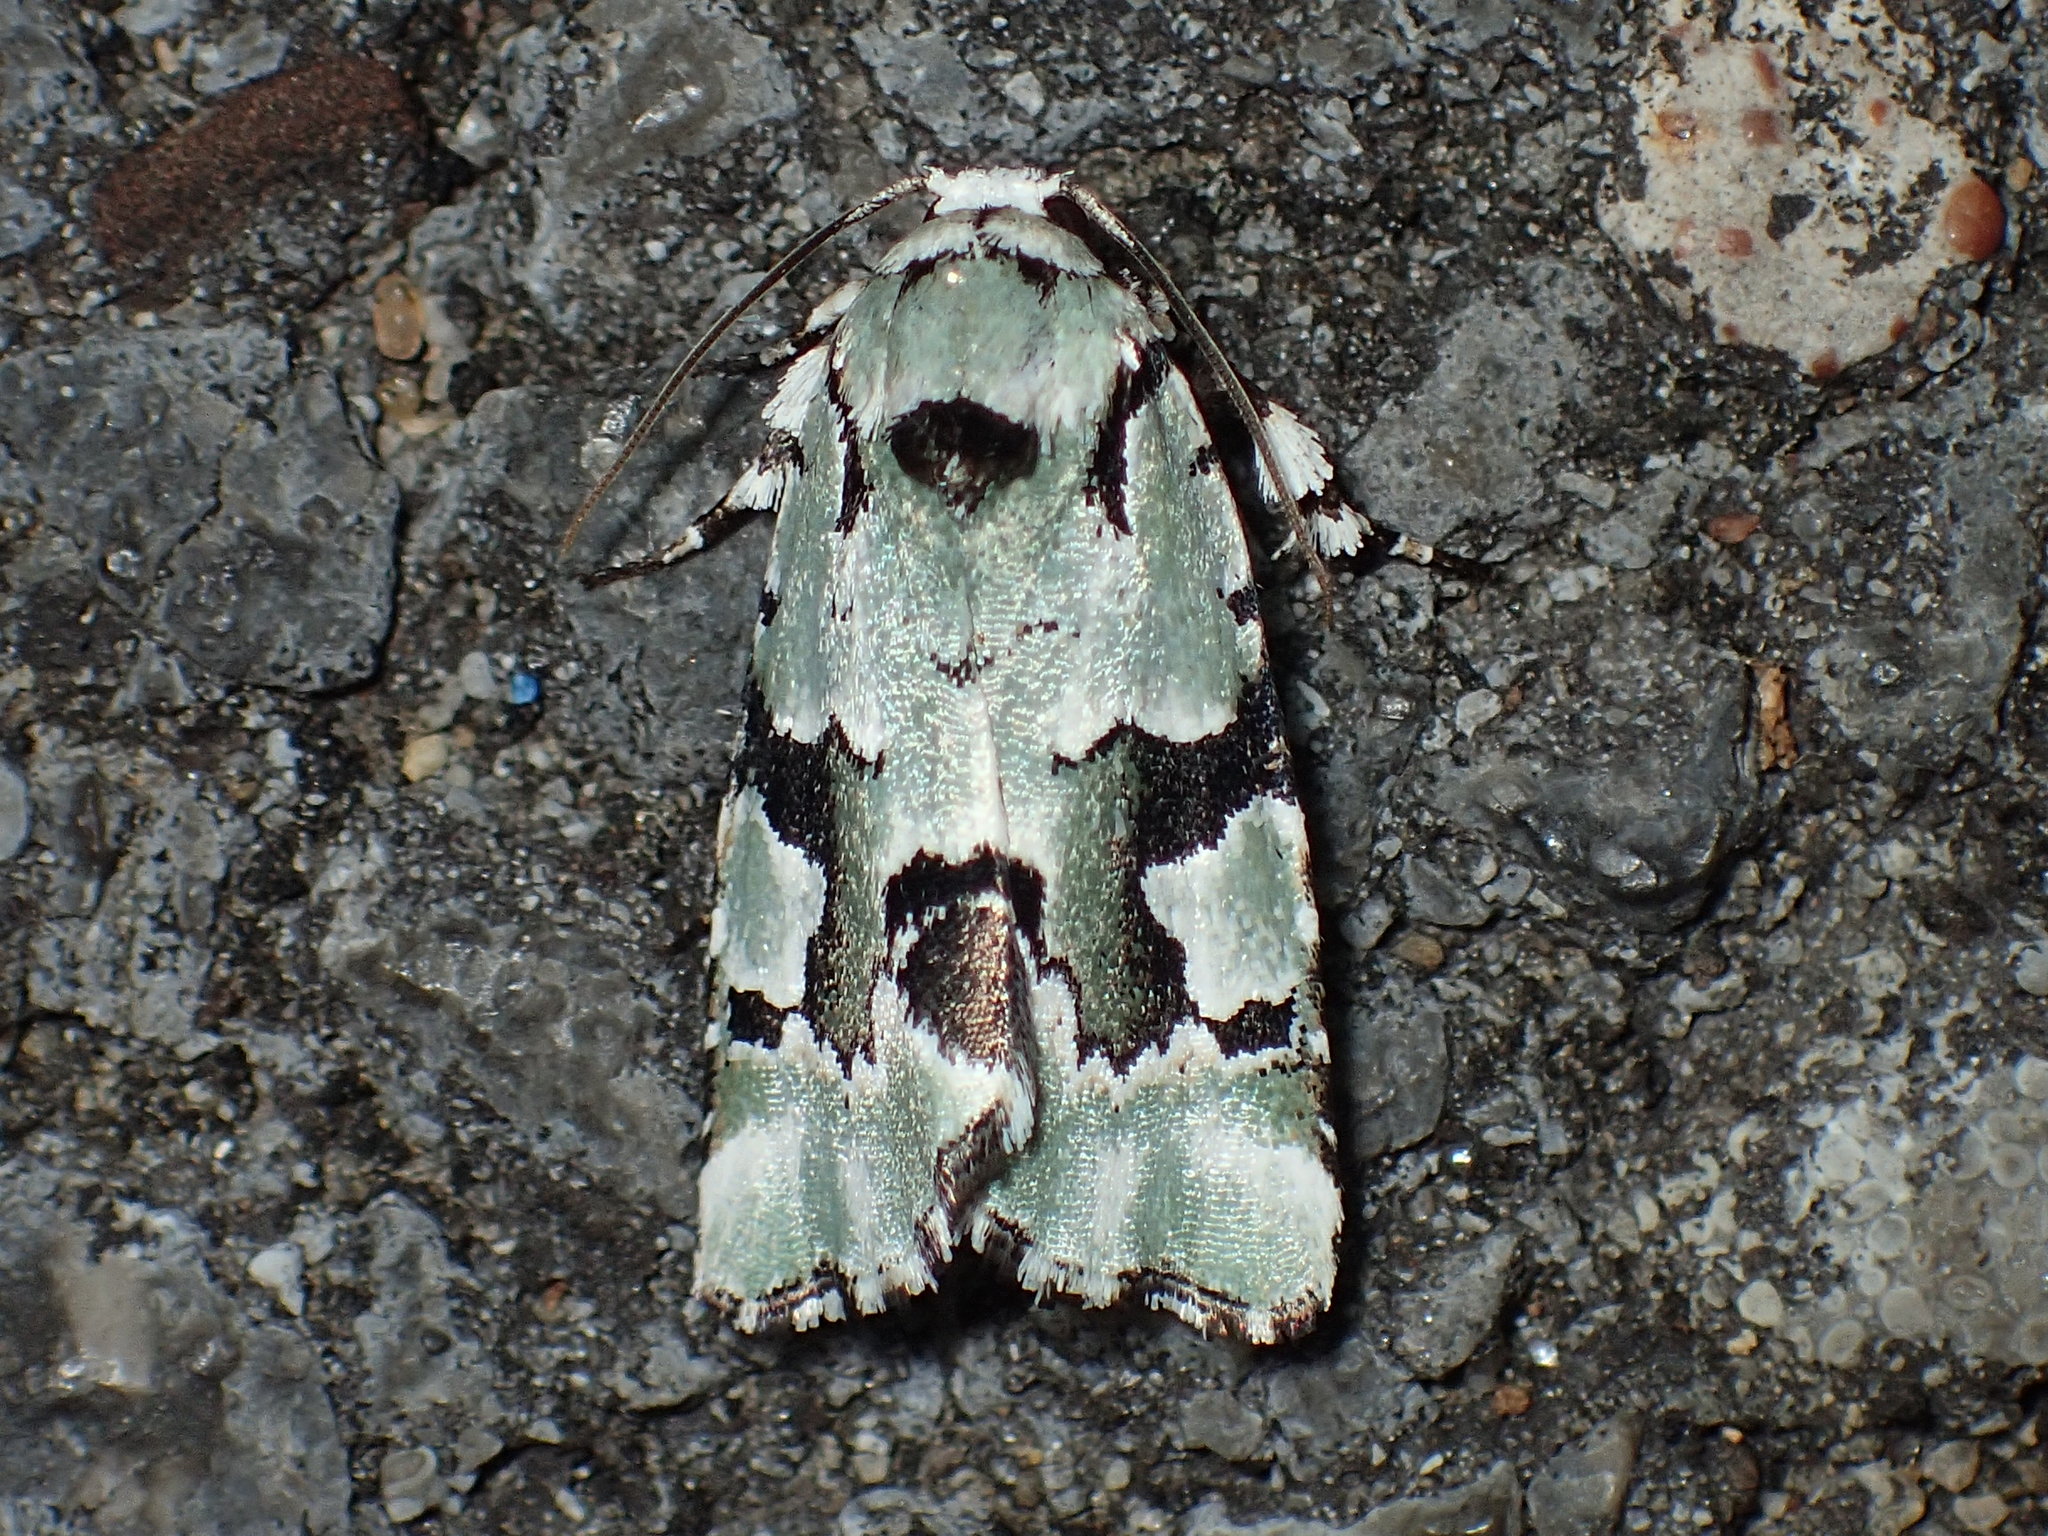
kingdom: Animalia
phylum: Arthropoda
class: Insecta
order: Lepidoptera
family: Noctuidae
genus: Emarginea
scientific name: Emarginea percara
